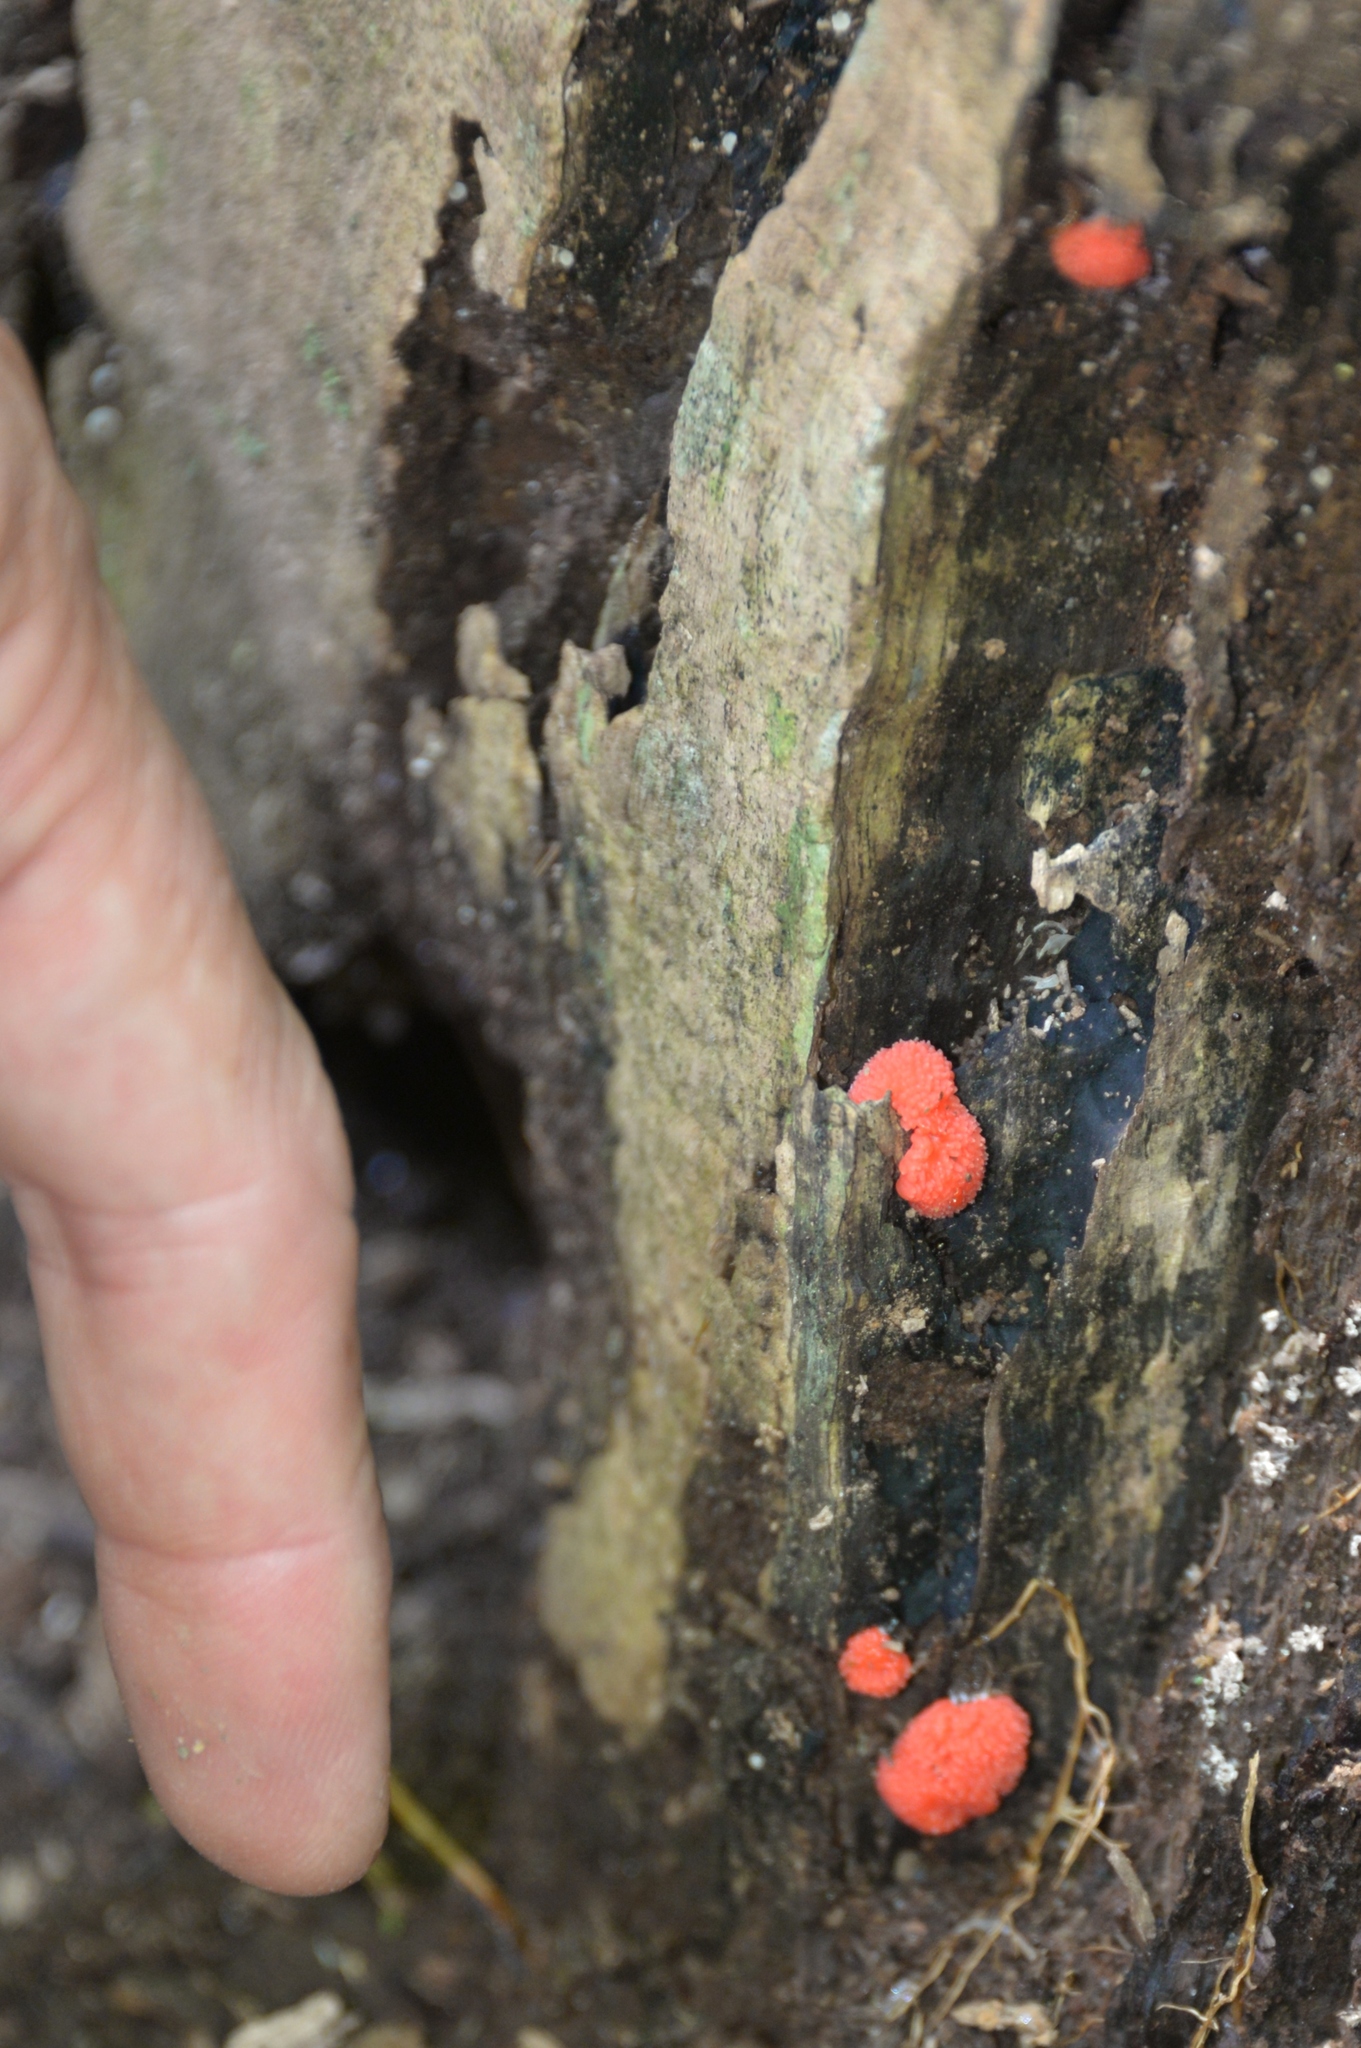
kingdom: Protozoa
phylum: Mycetozoa
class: Myxomycetes
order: Cribrariales
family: Tubiferaceae
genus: Tubifera
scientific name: Tubifera ferruginosa
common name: Red raspberry slime mold
